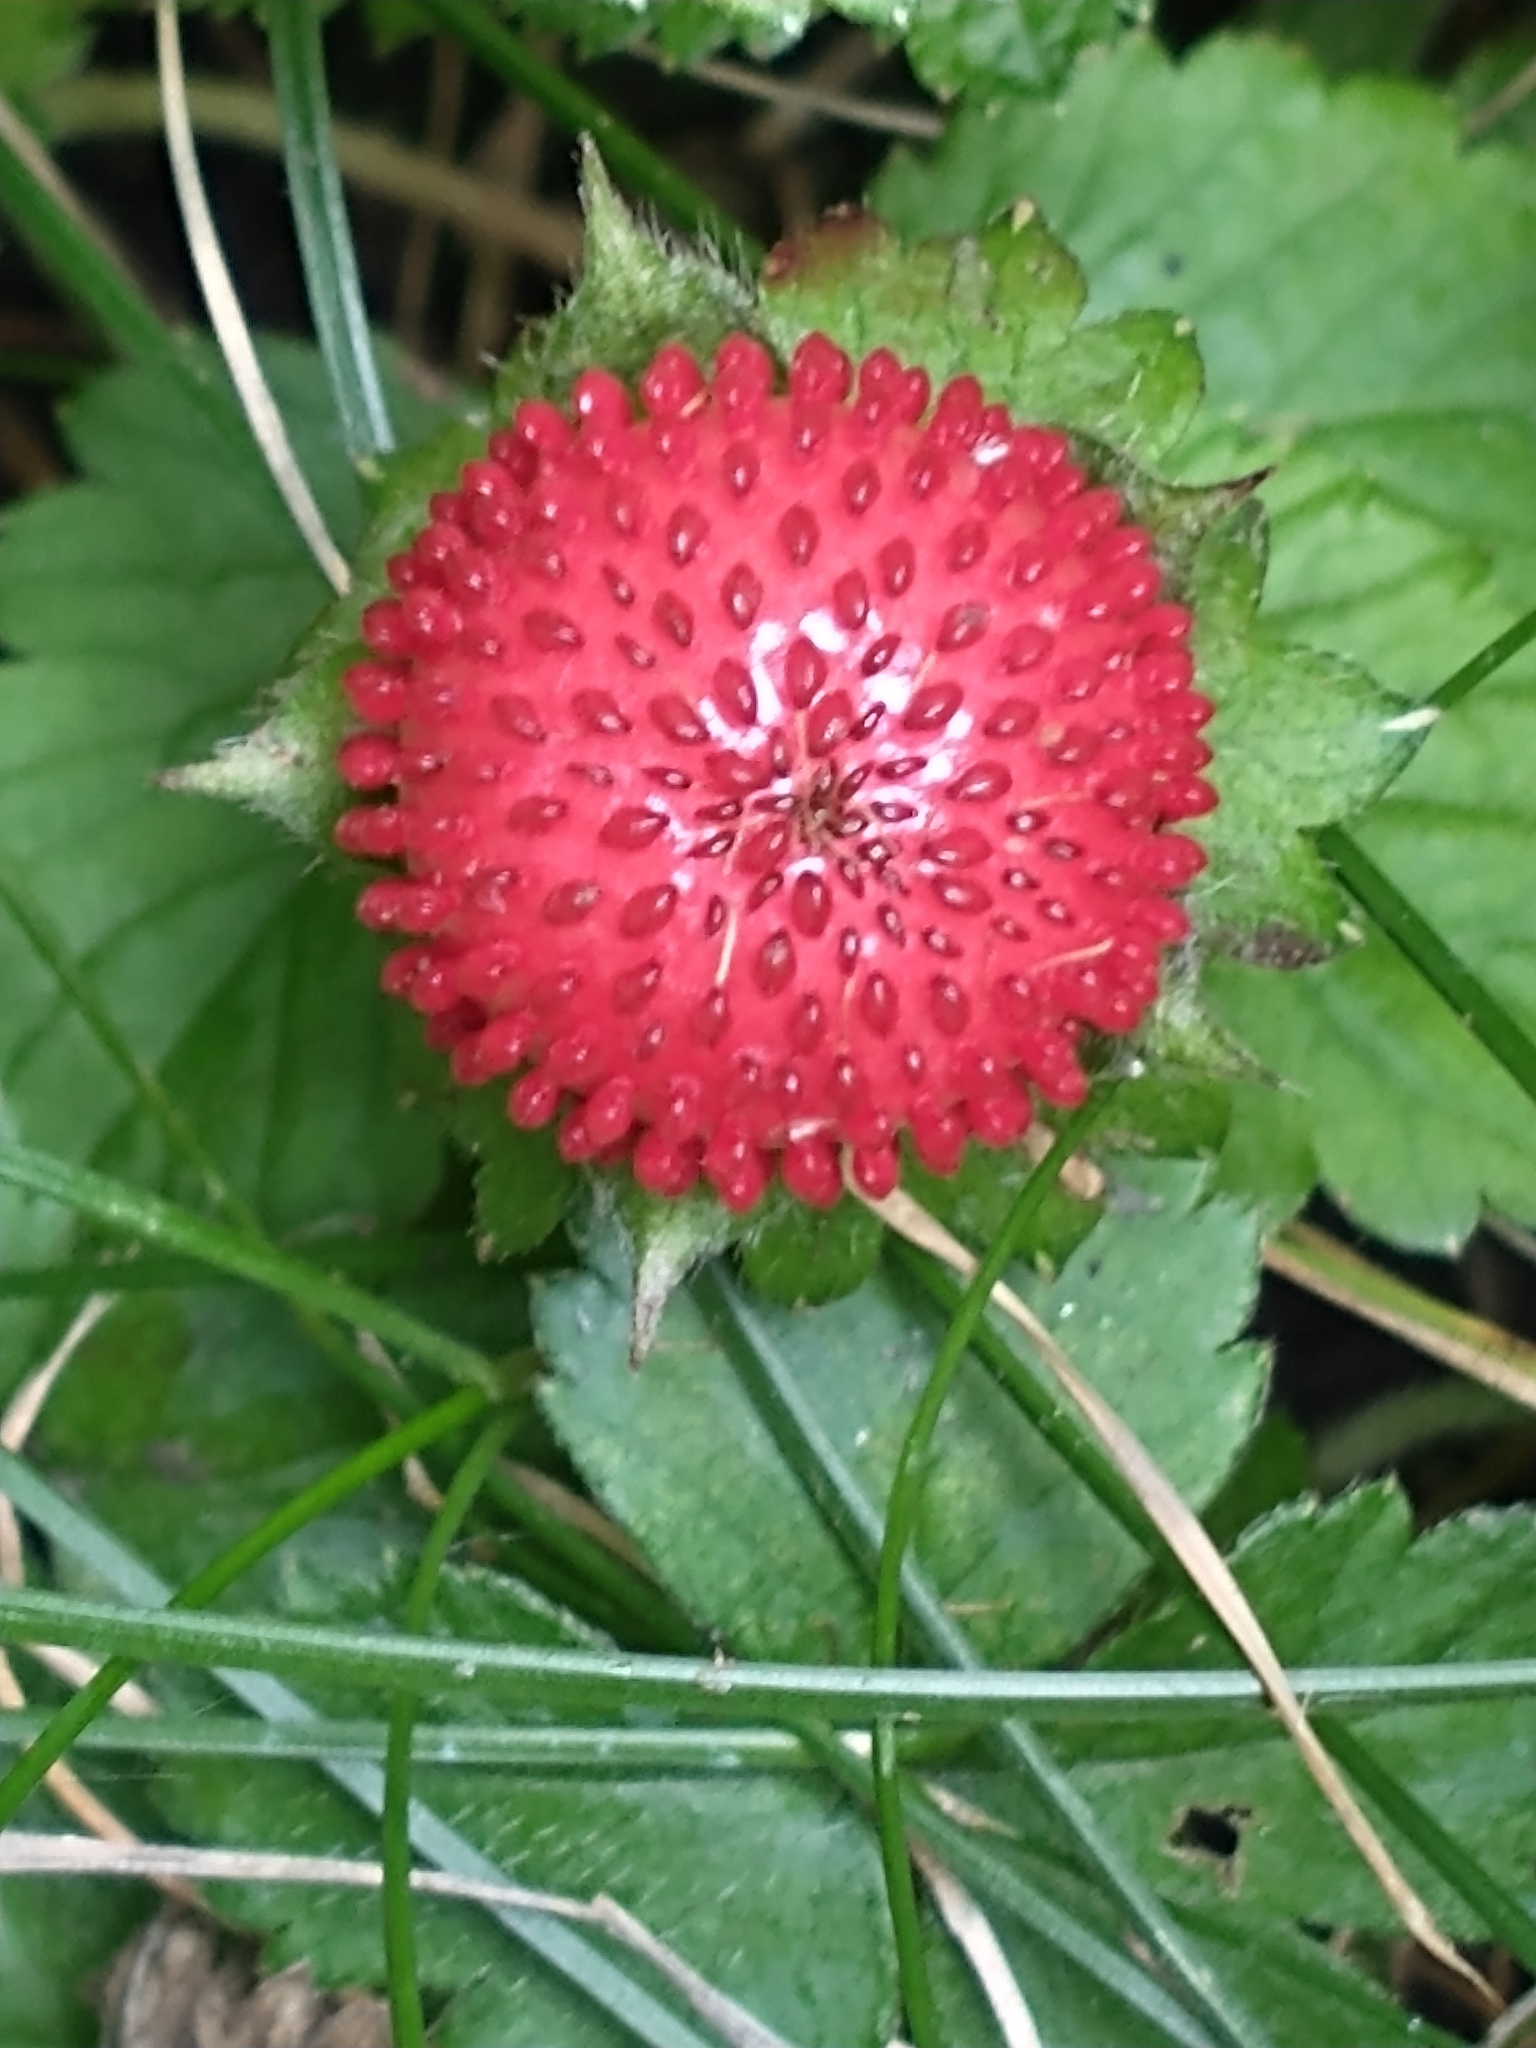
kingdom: Plantae
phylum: Tracheophyta
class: Magnoliopsida
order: Rosales
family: Rosaceae
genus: Potentilla
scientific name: Potentilla indica
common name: Yellow-flowered strawberry
